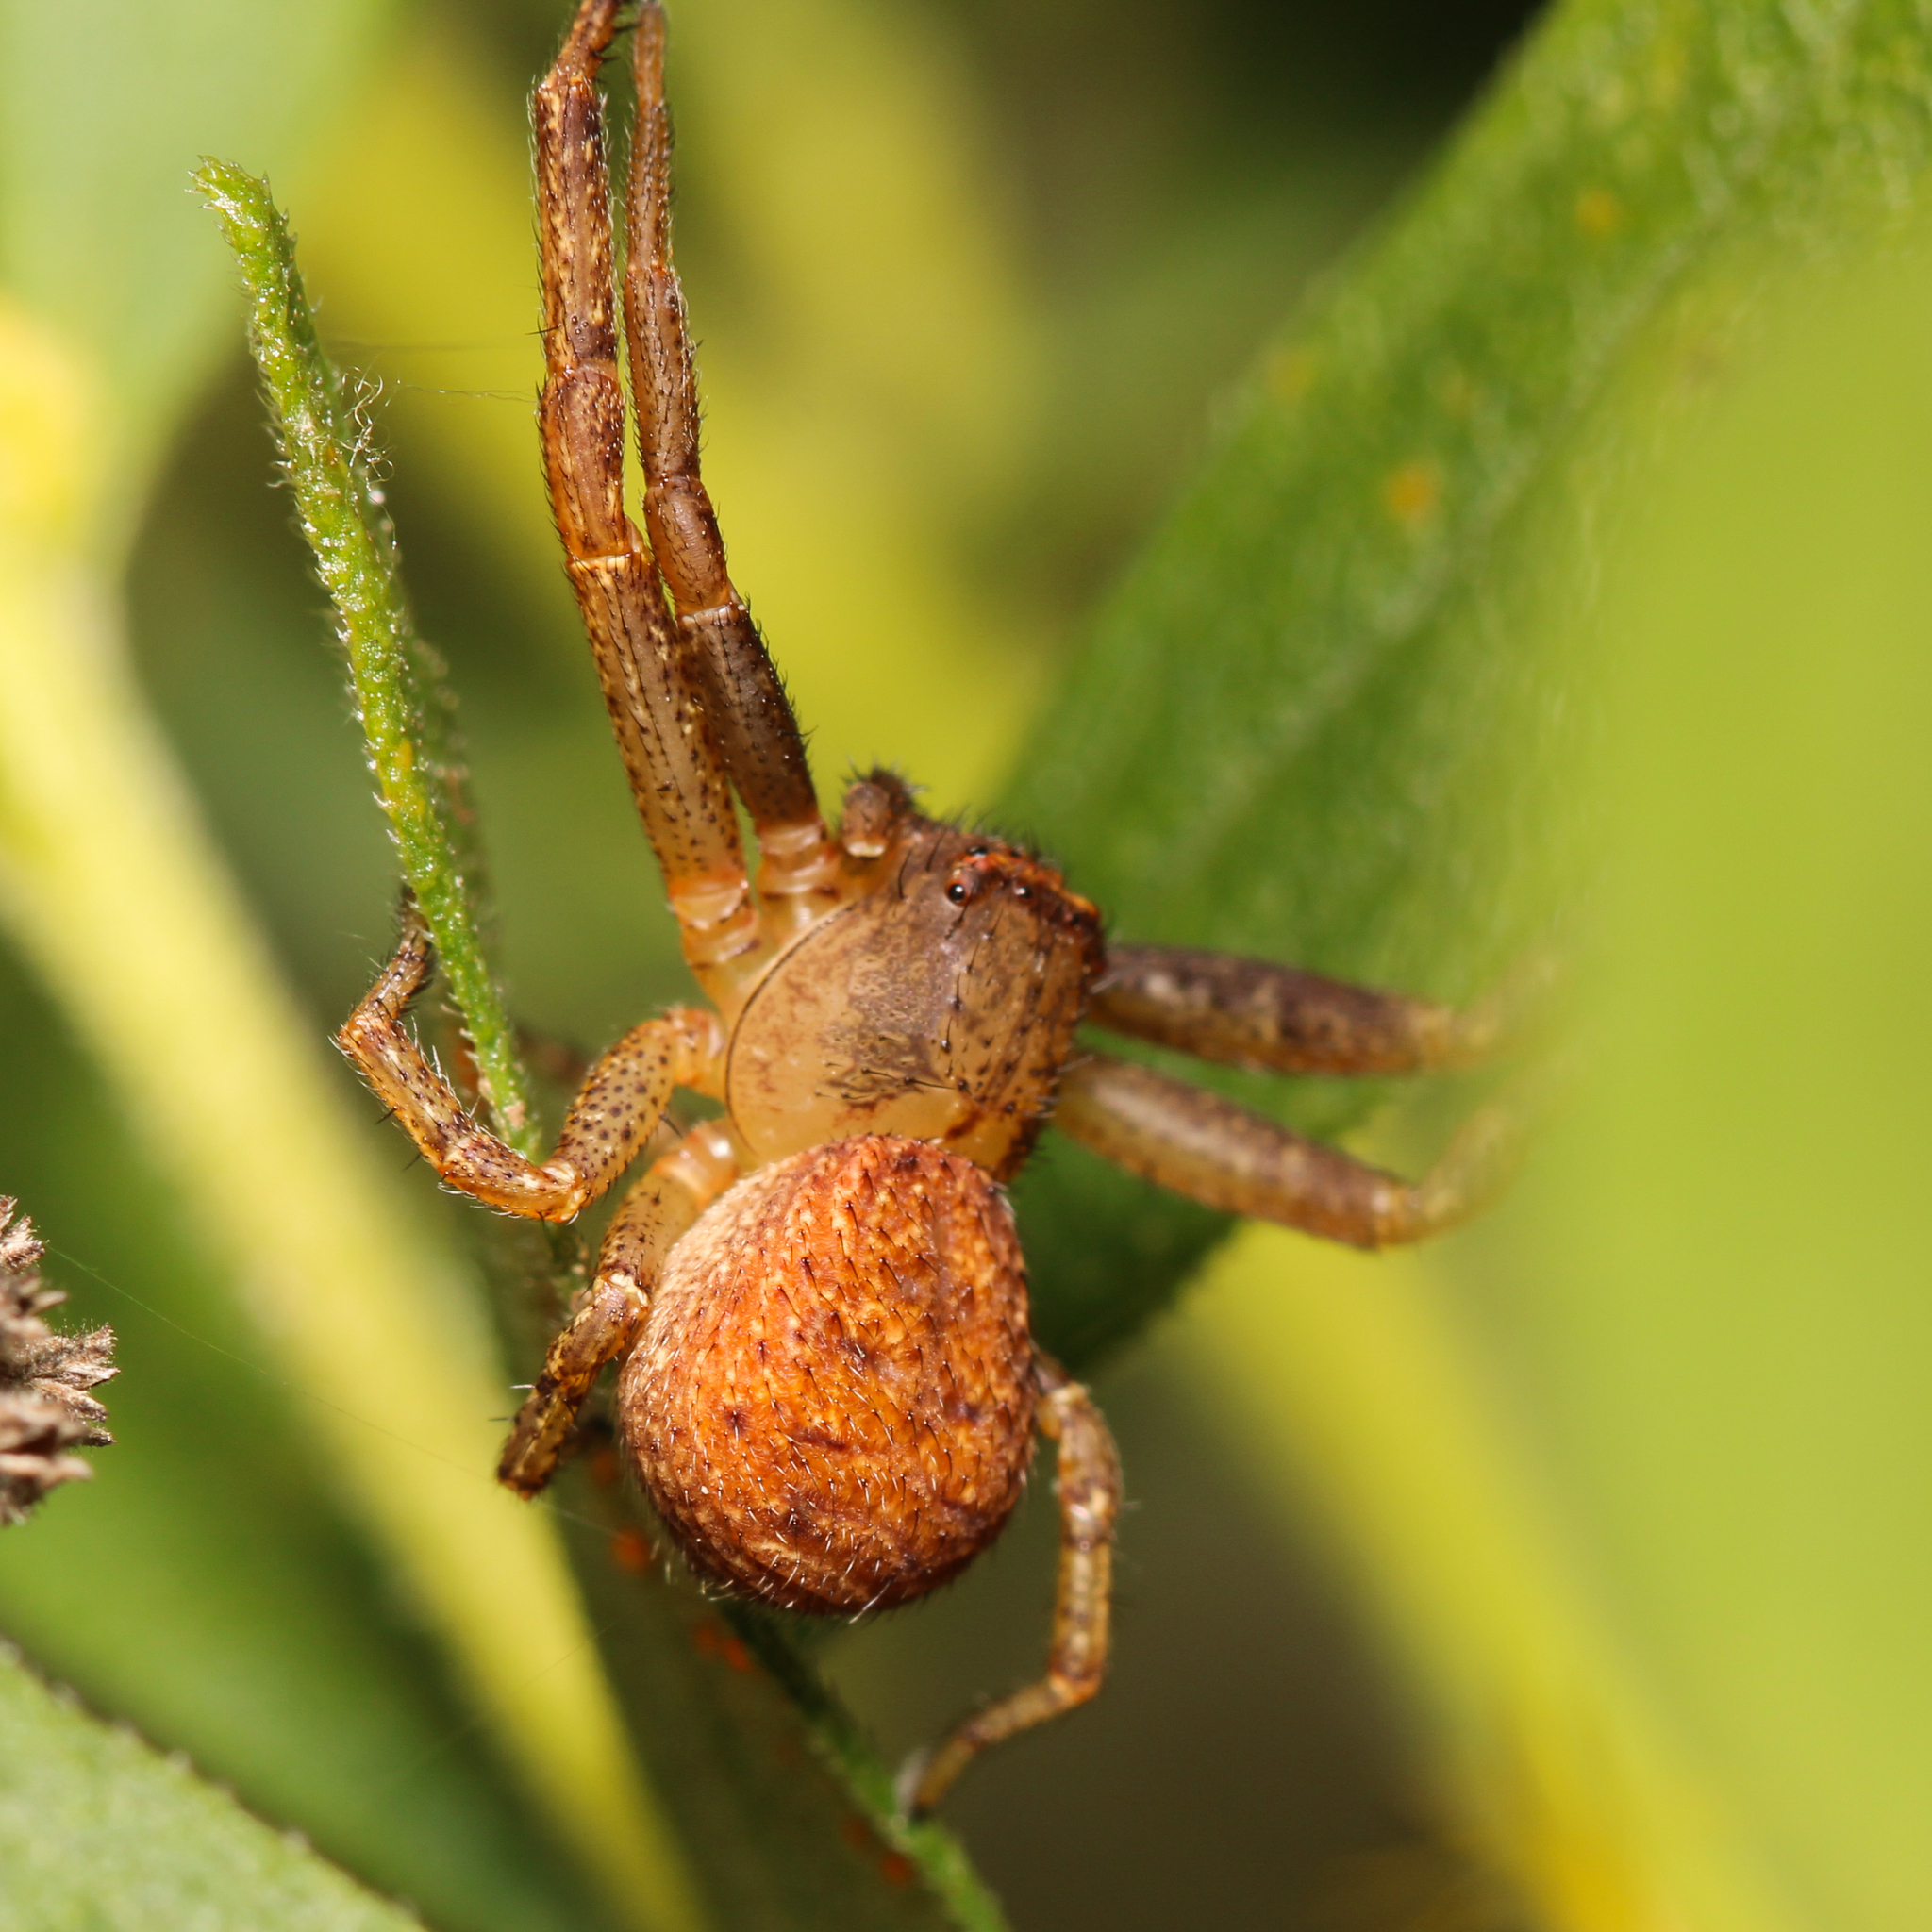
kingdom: Animalia
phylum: Arthropoda
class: Arachnida
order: Araneae
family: Thomisidae
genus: Xysticus
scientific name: Xysticus funestus
